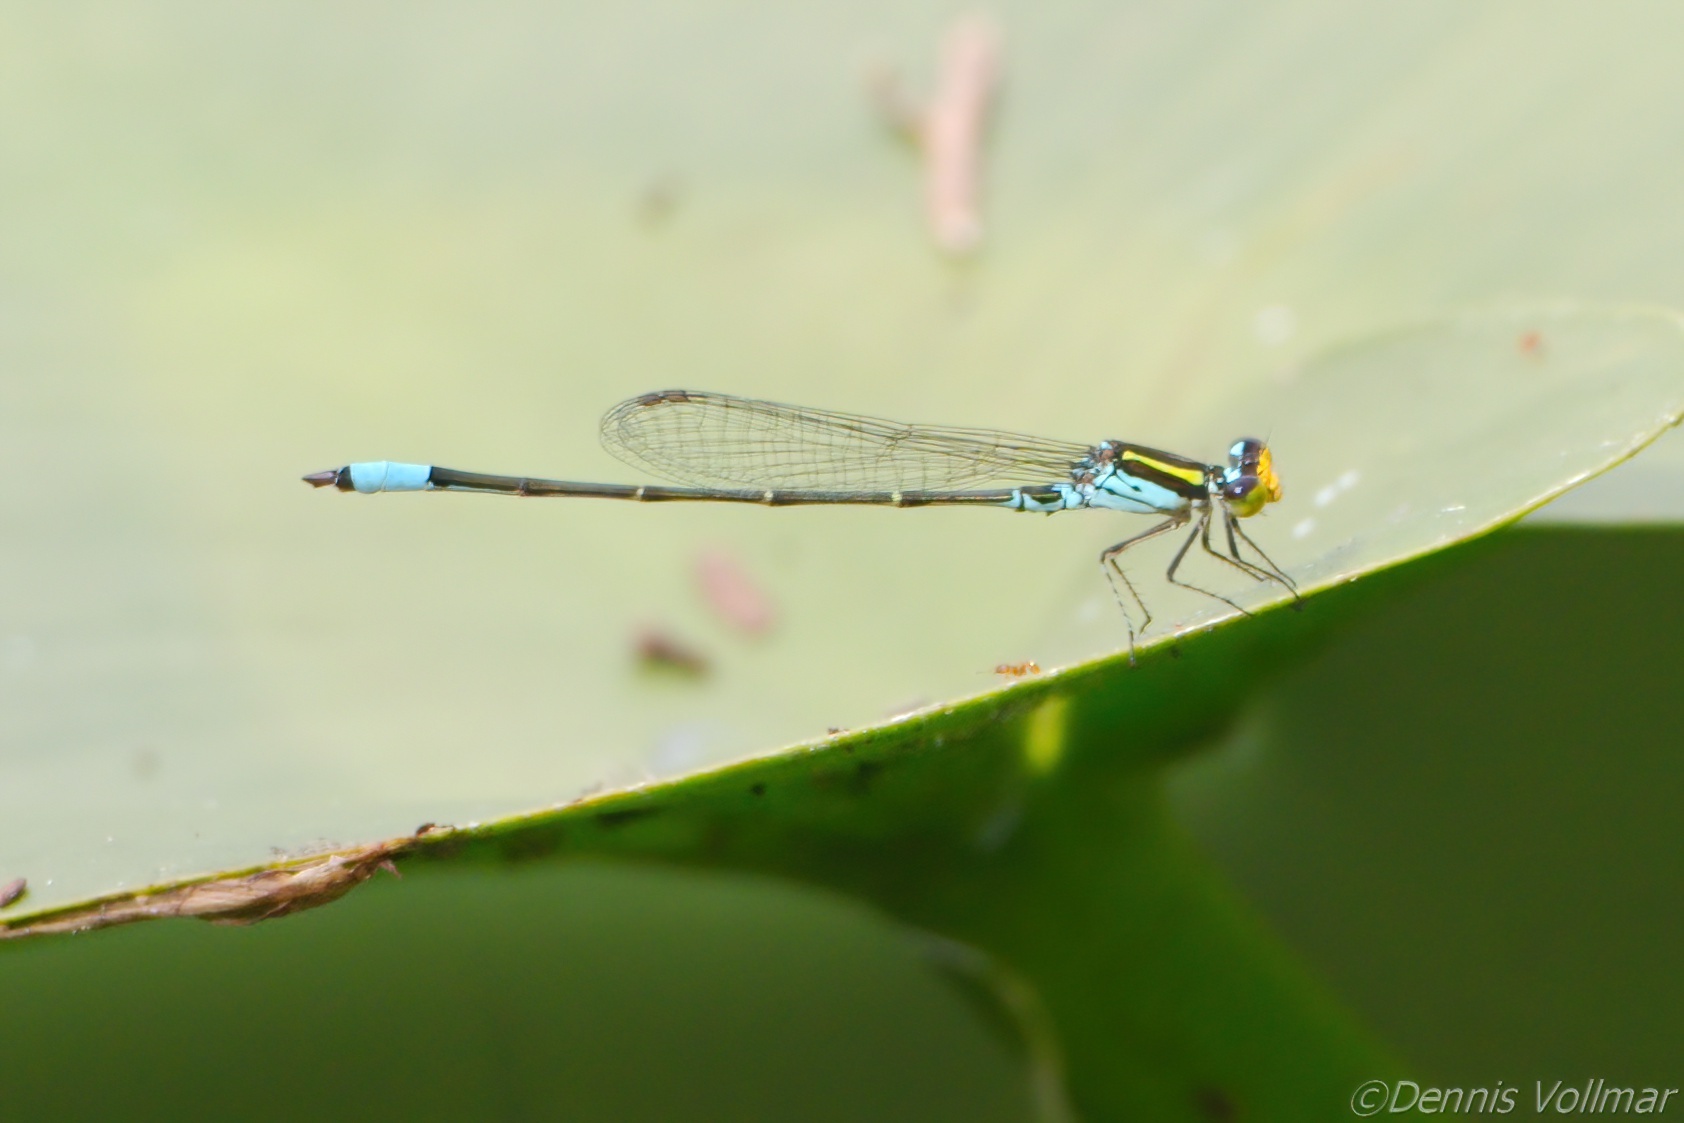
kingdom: Animalia
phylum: Arthropoda
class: Insecta
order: Odonata
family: Coenagrionidae
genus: Neoerythromma
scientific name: Neoerythromma cultellatum
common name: Caribbean yellowface
